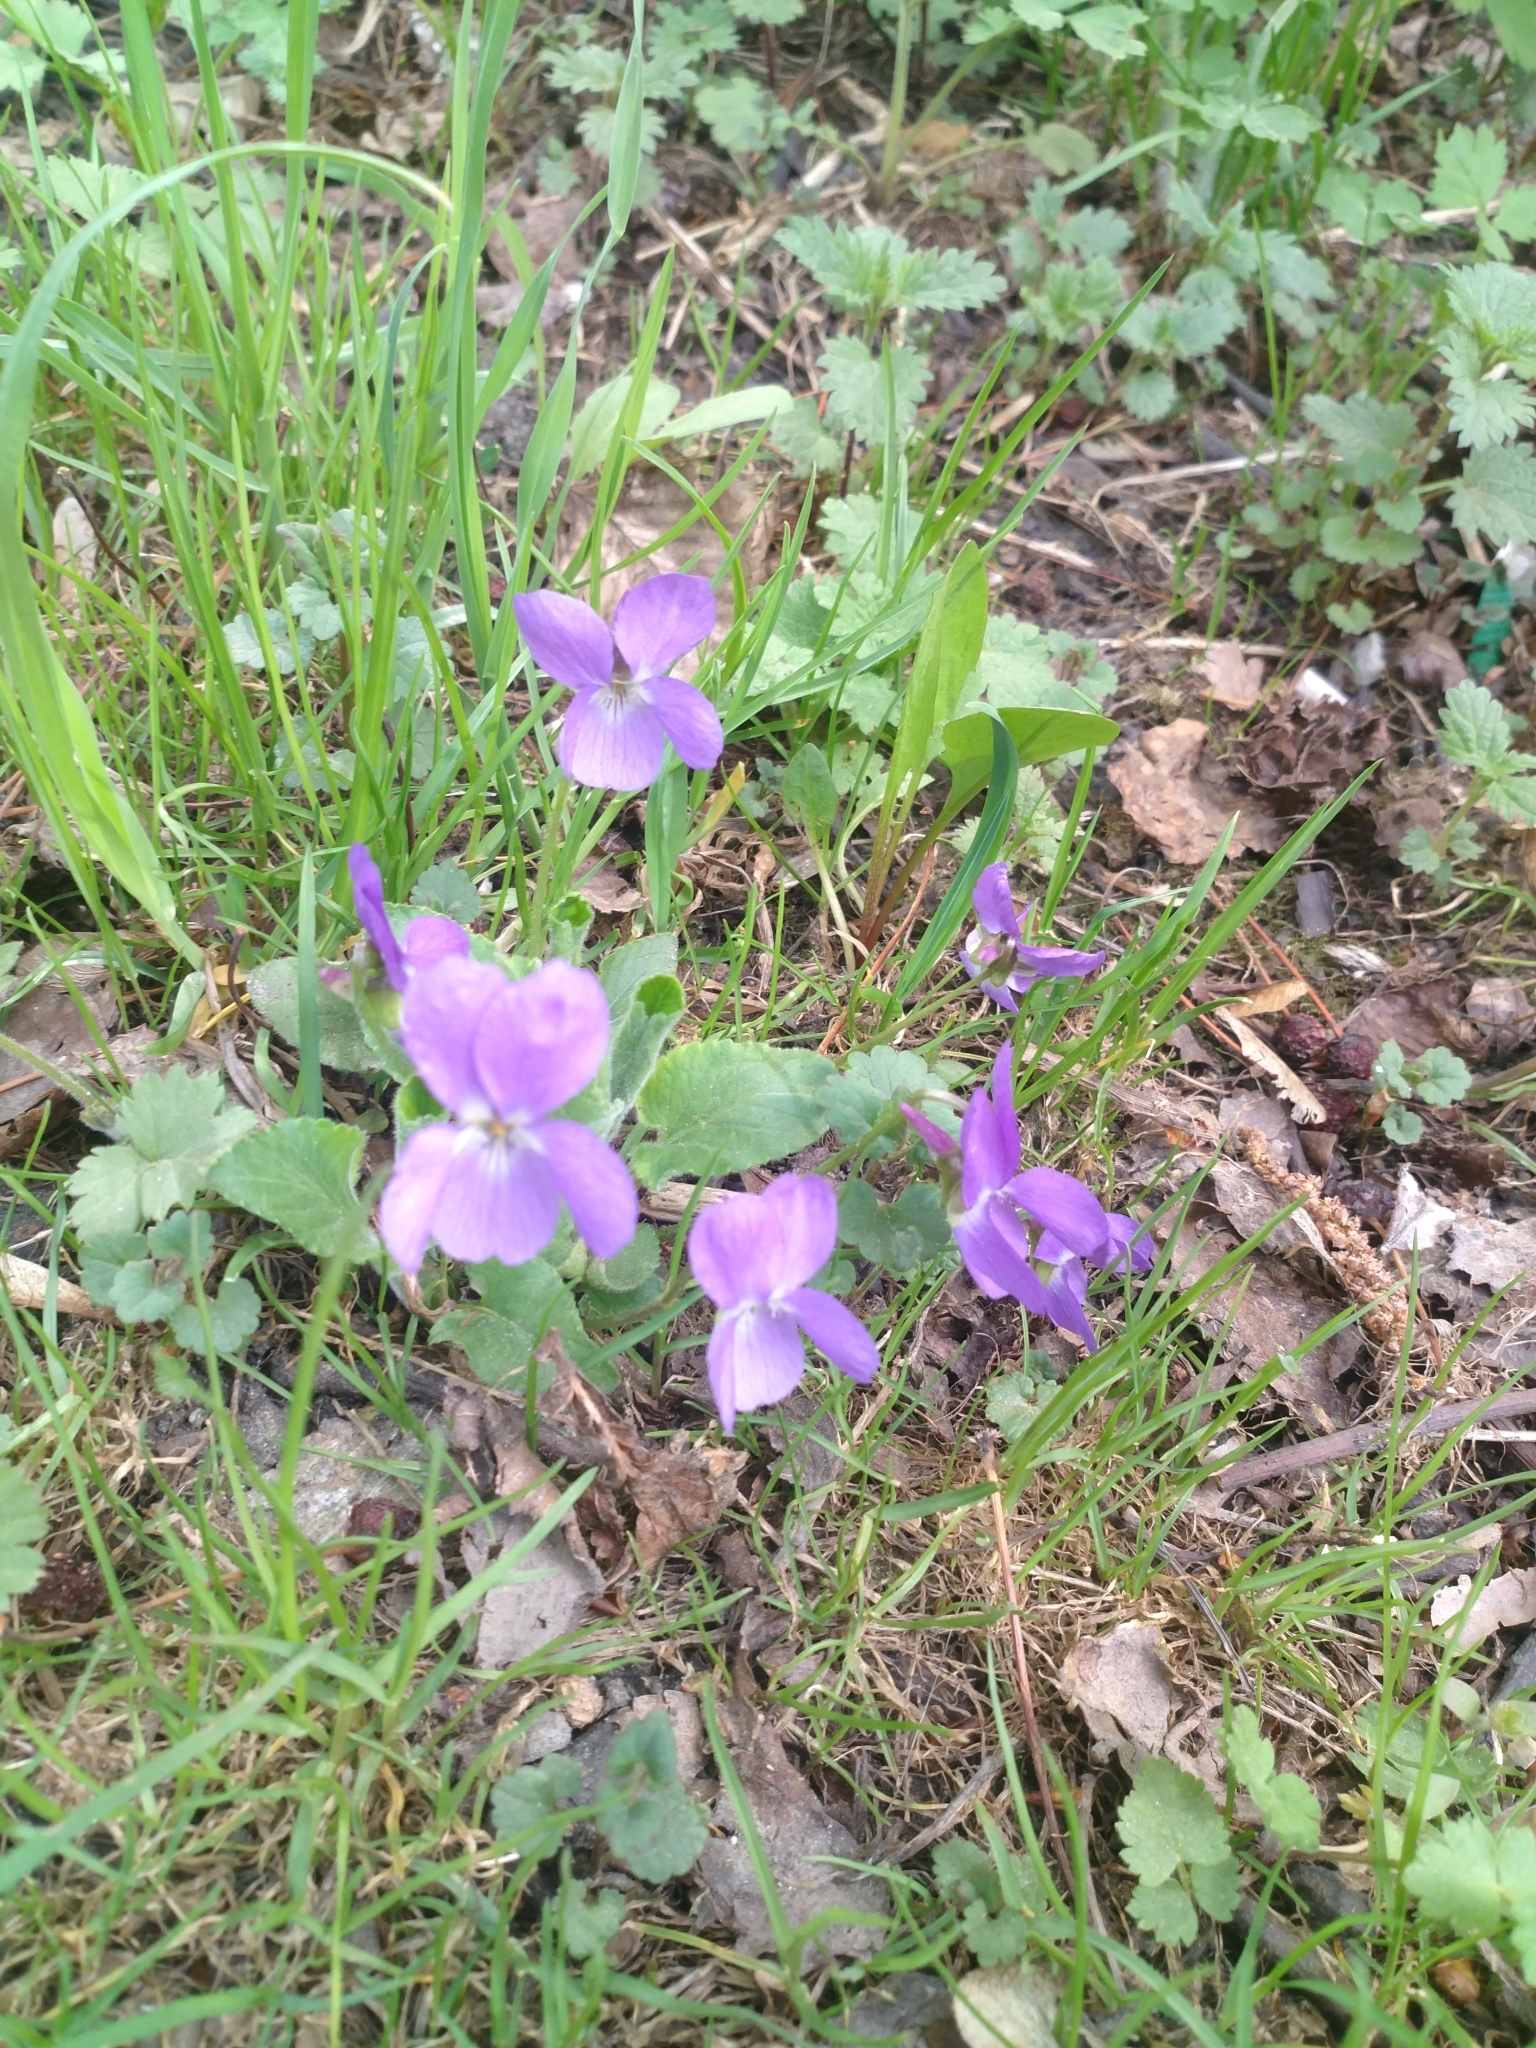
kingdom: Plantae
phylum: Tracheophyta
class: Magnoliopsida
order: Malpighiales
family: Violaceae
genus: Viola
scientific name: Viola hirta
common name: Hairy violet
